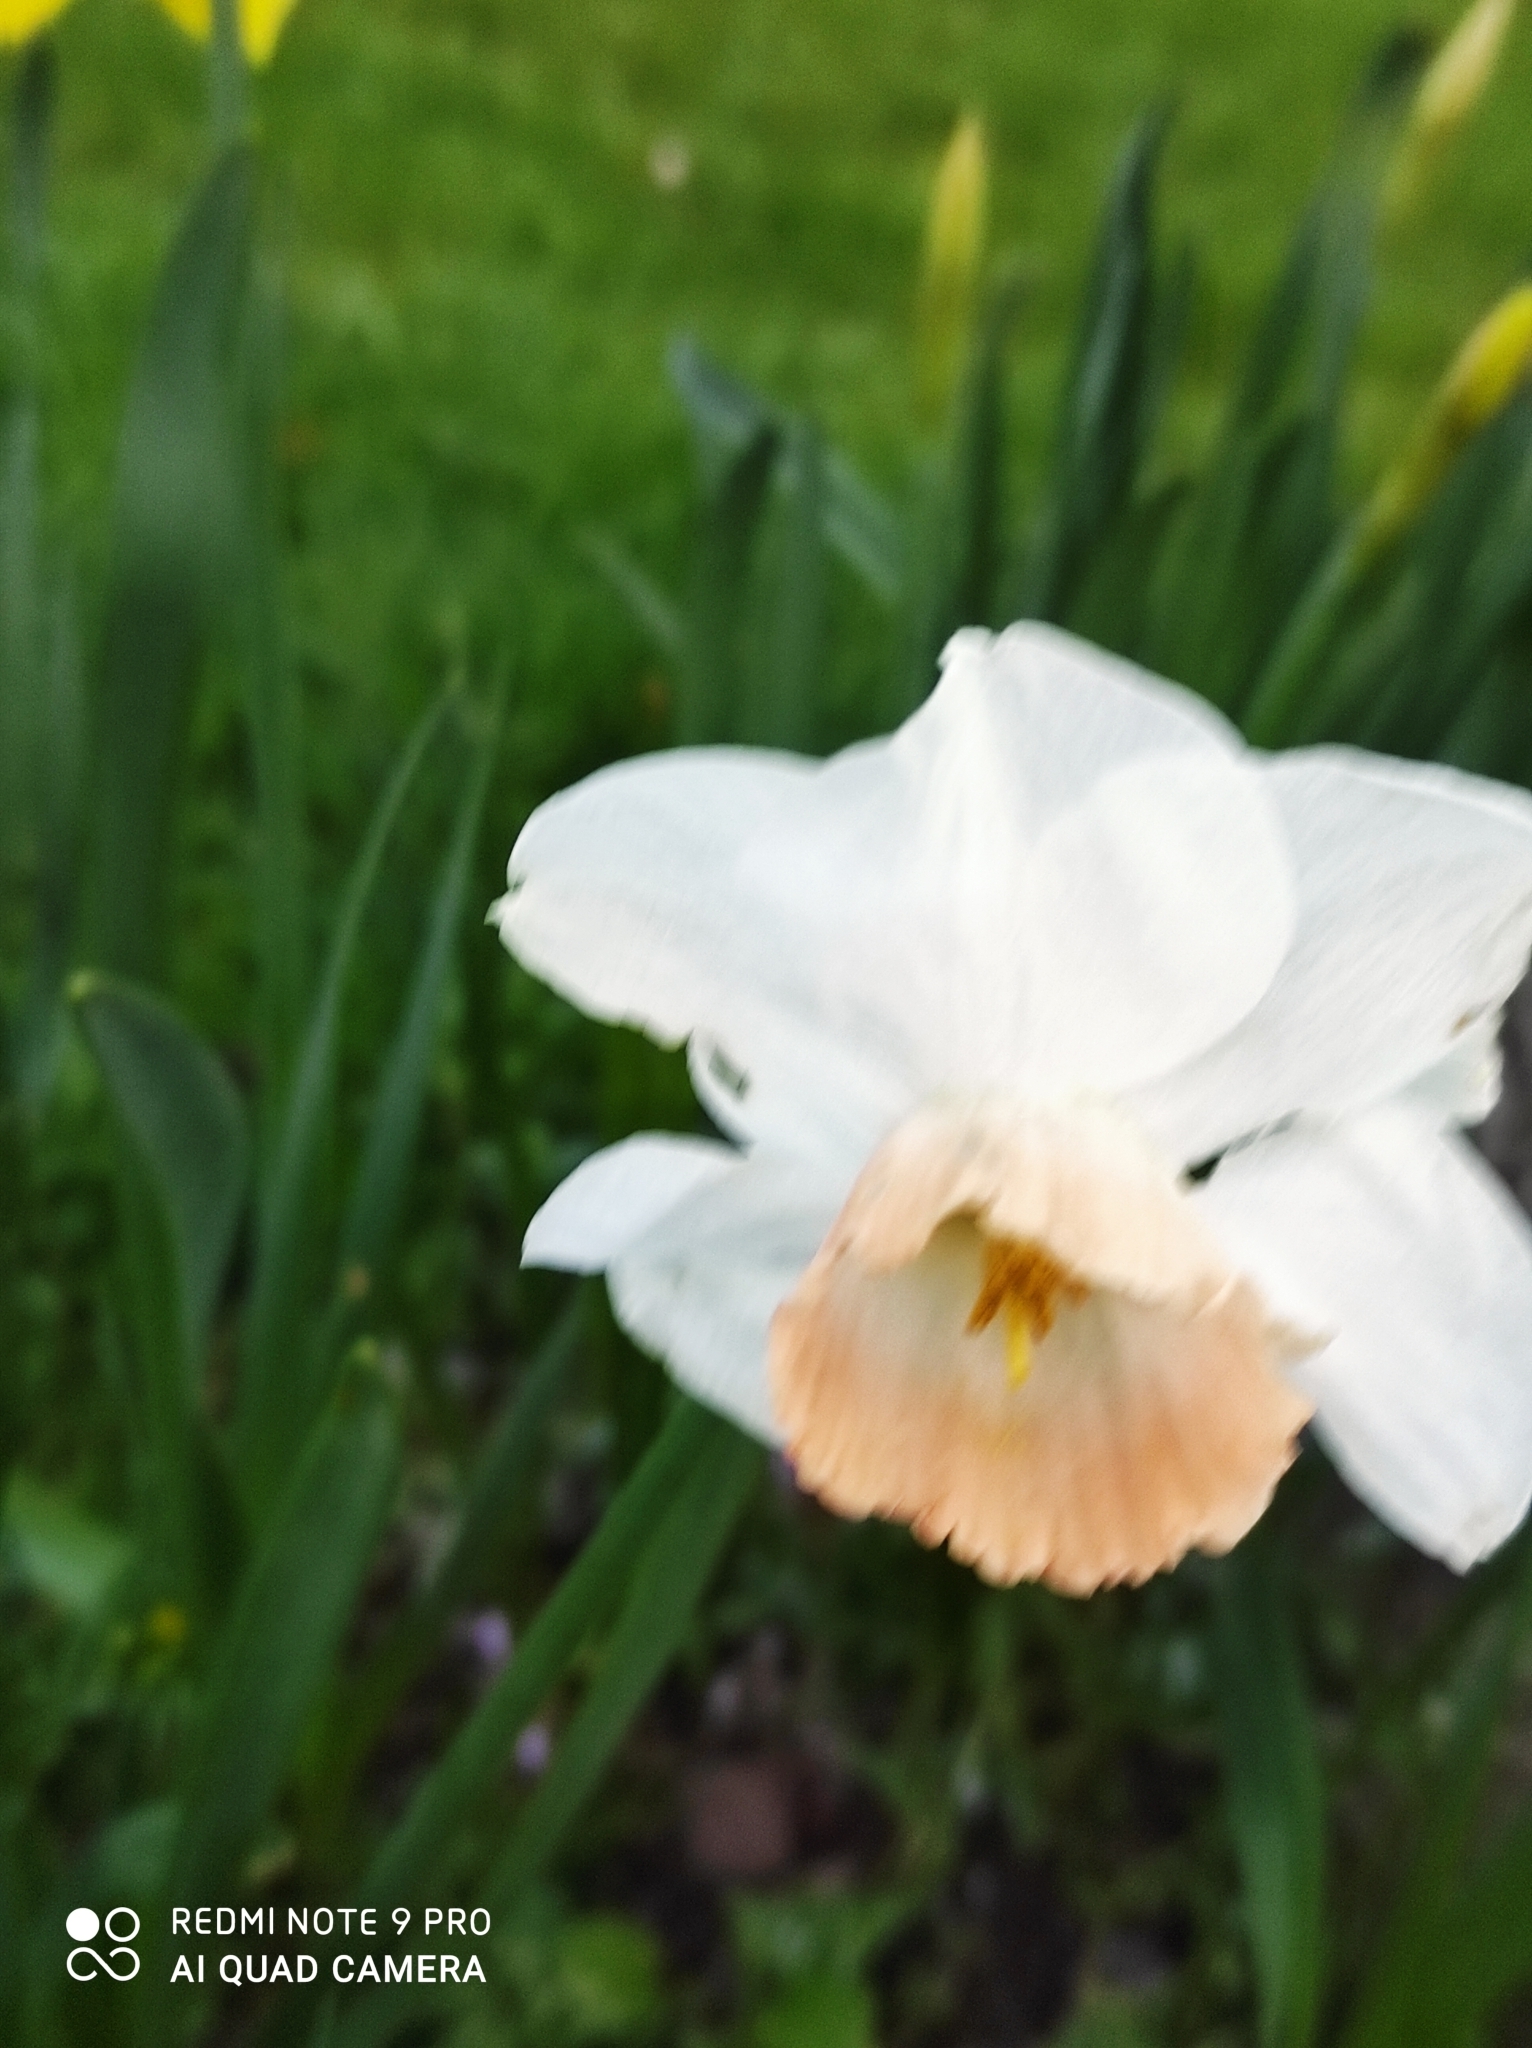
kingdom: Plantae
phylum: Tracheophyta
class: Liliopsida
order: Asparagales
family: Amaryllidaceae
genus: Narcissus
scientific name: Narcissus
